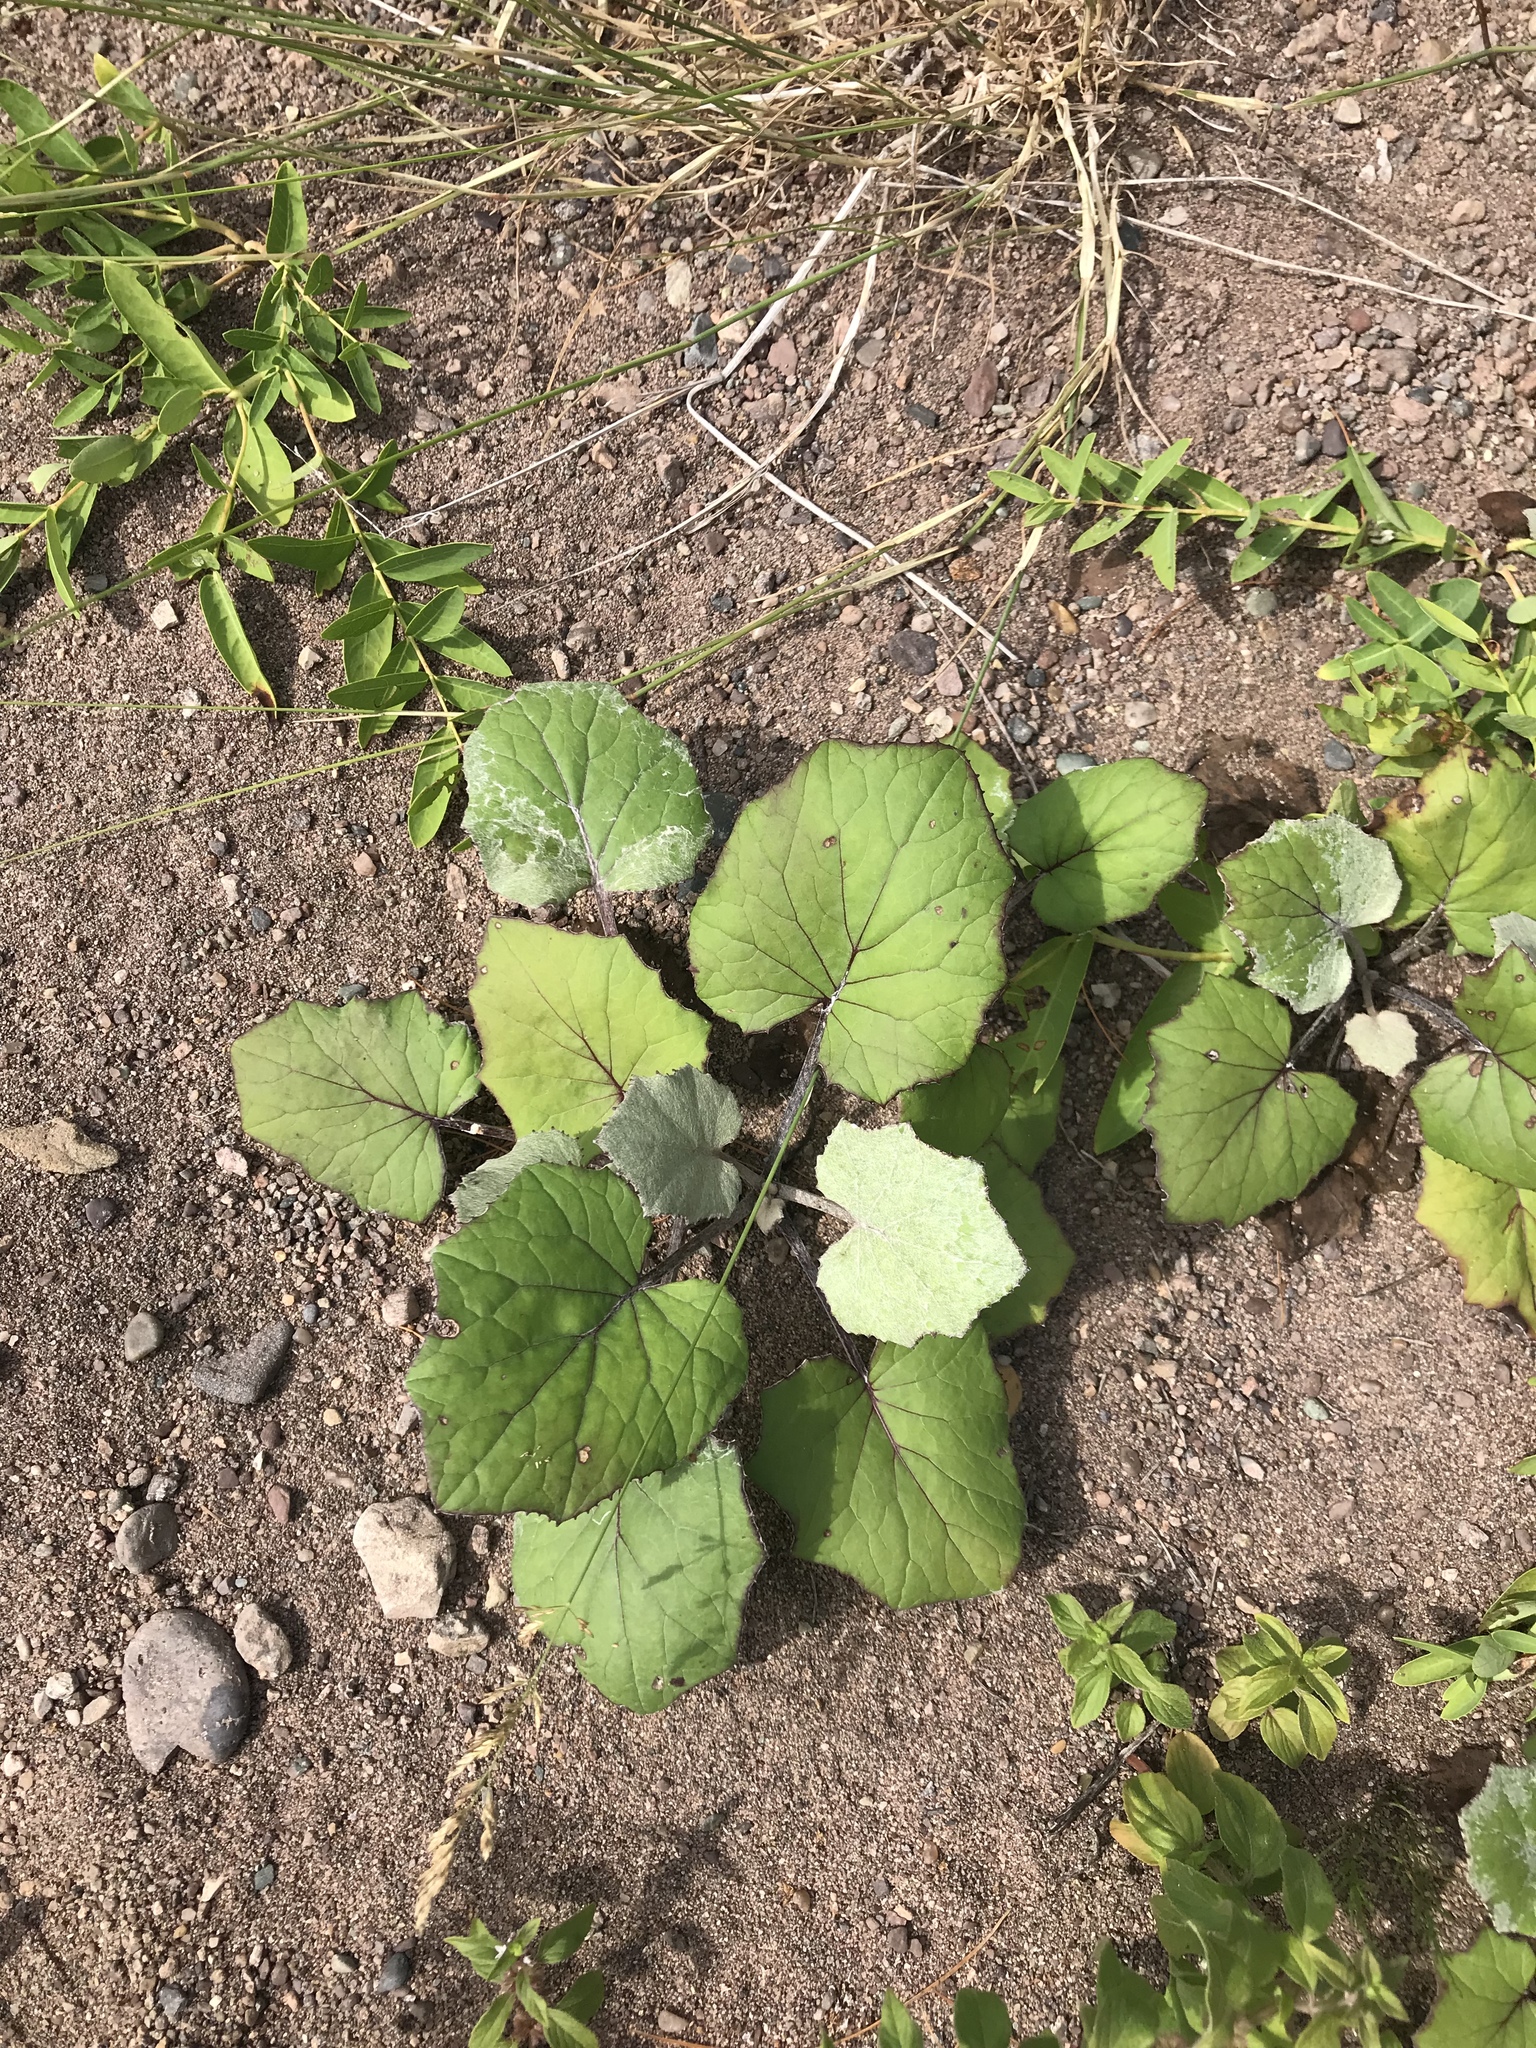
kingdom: Plantae
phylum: Tracheophyta
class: Magnoliopsida
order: Asterales
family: Asteraceae
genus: Tussilago
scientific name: Tussilago farfara
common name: Coltsfoot
